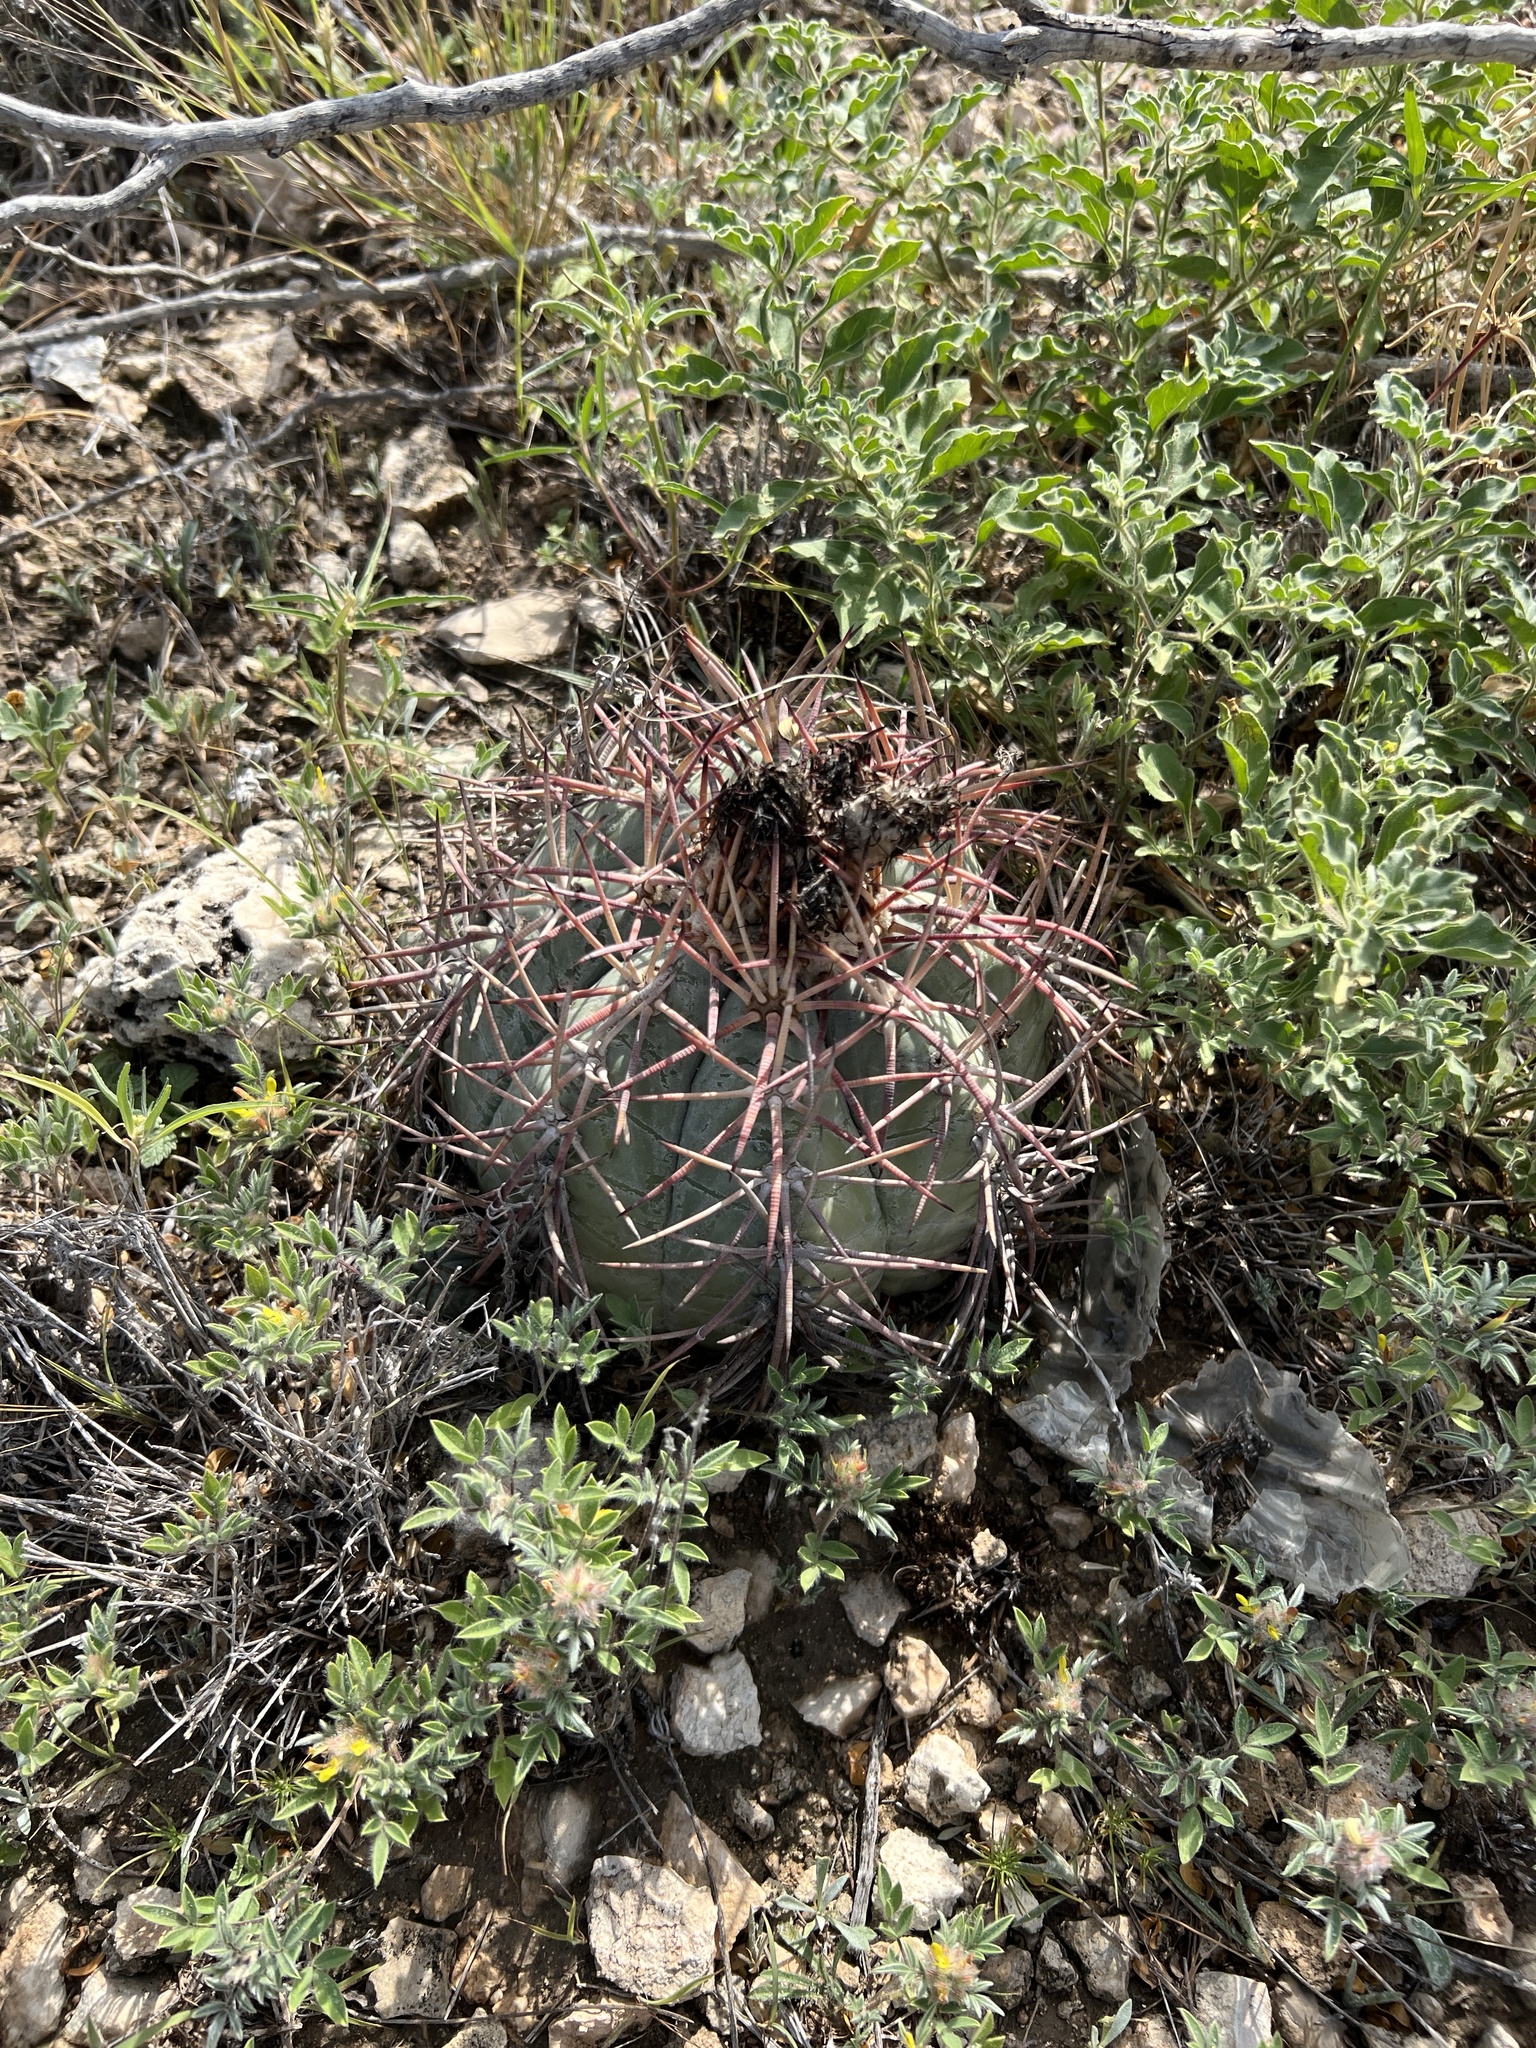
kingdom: Plantae
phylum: Tracheophyta
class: Magnoliopsida
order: Caryophyllales
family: Cactaceae
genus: Echinocactus
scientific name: Echinocactus horizonthalonius
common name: Devilshead
